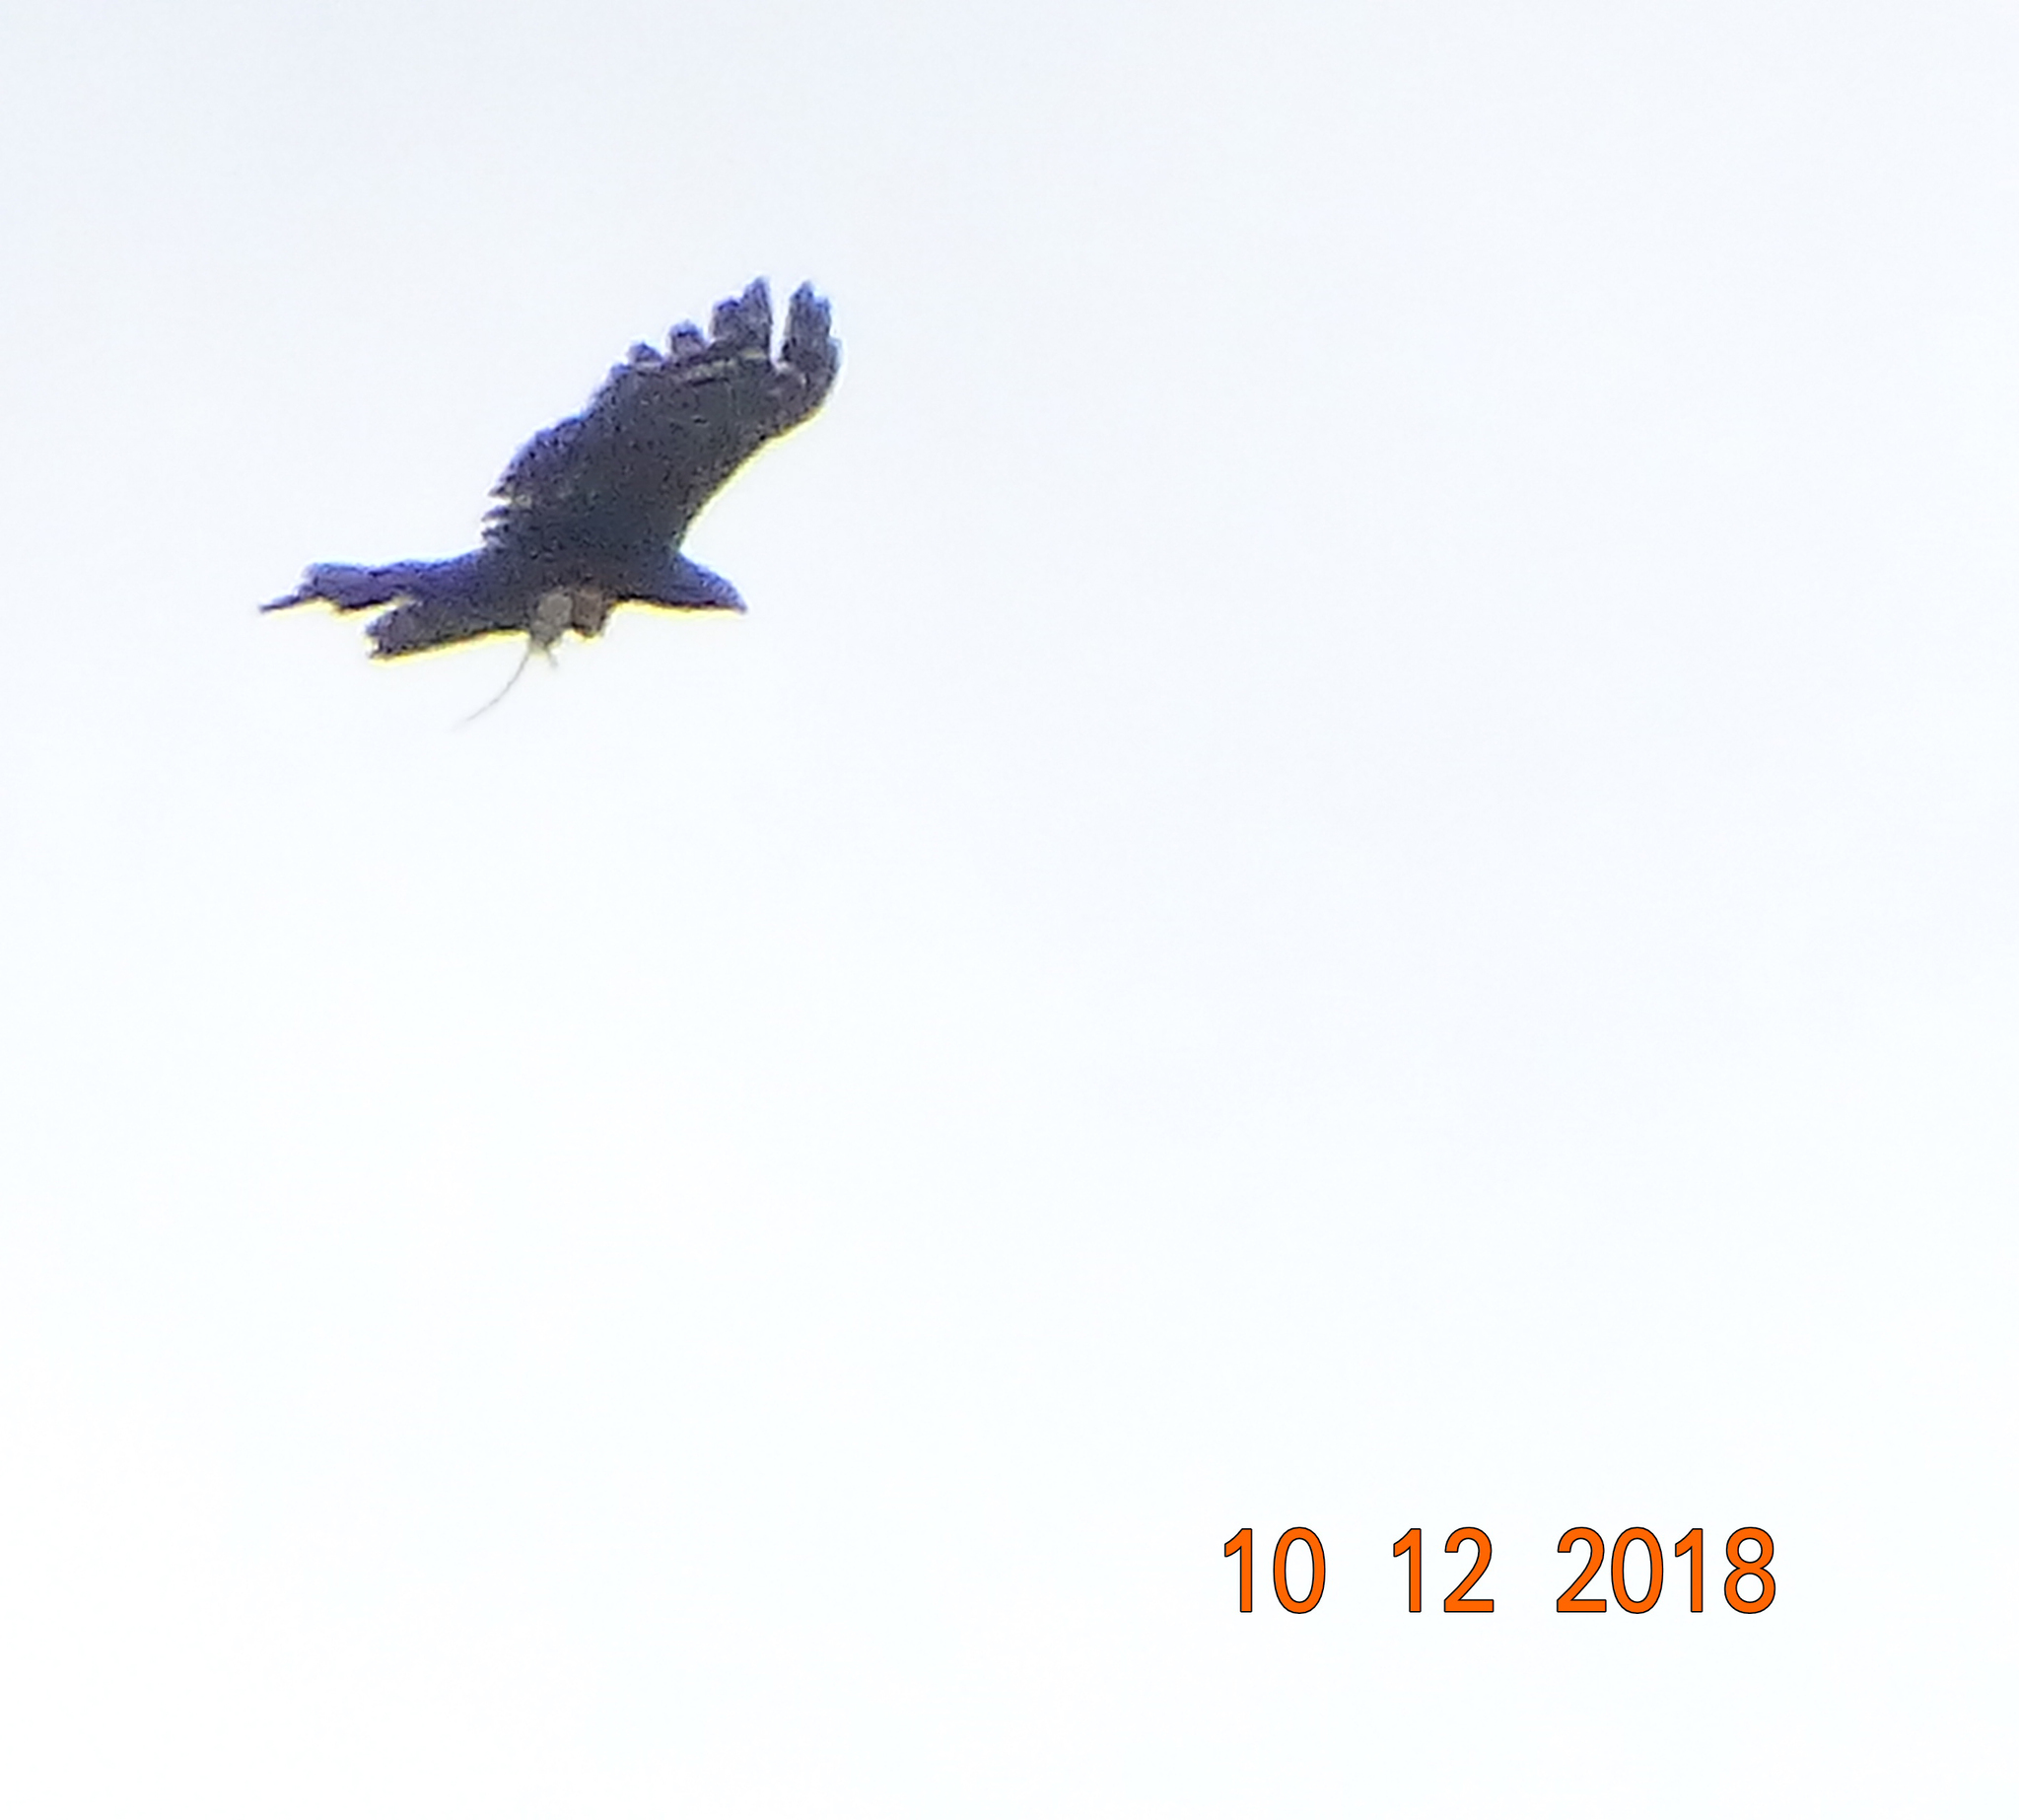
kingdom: Animalia
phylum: Chordata
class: Aves
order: Accipitriformes
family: Accipitridae
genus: Spizaetus
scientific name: Spizaetus tyrannus
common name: Black hawk-eagle
